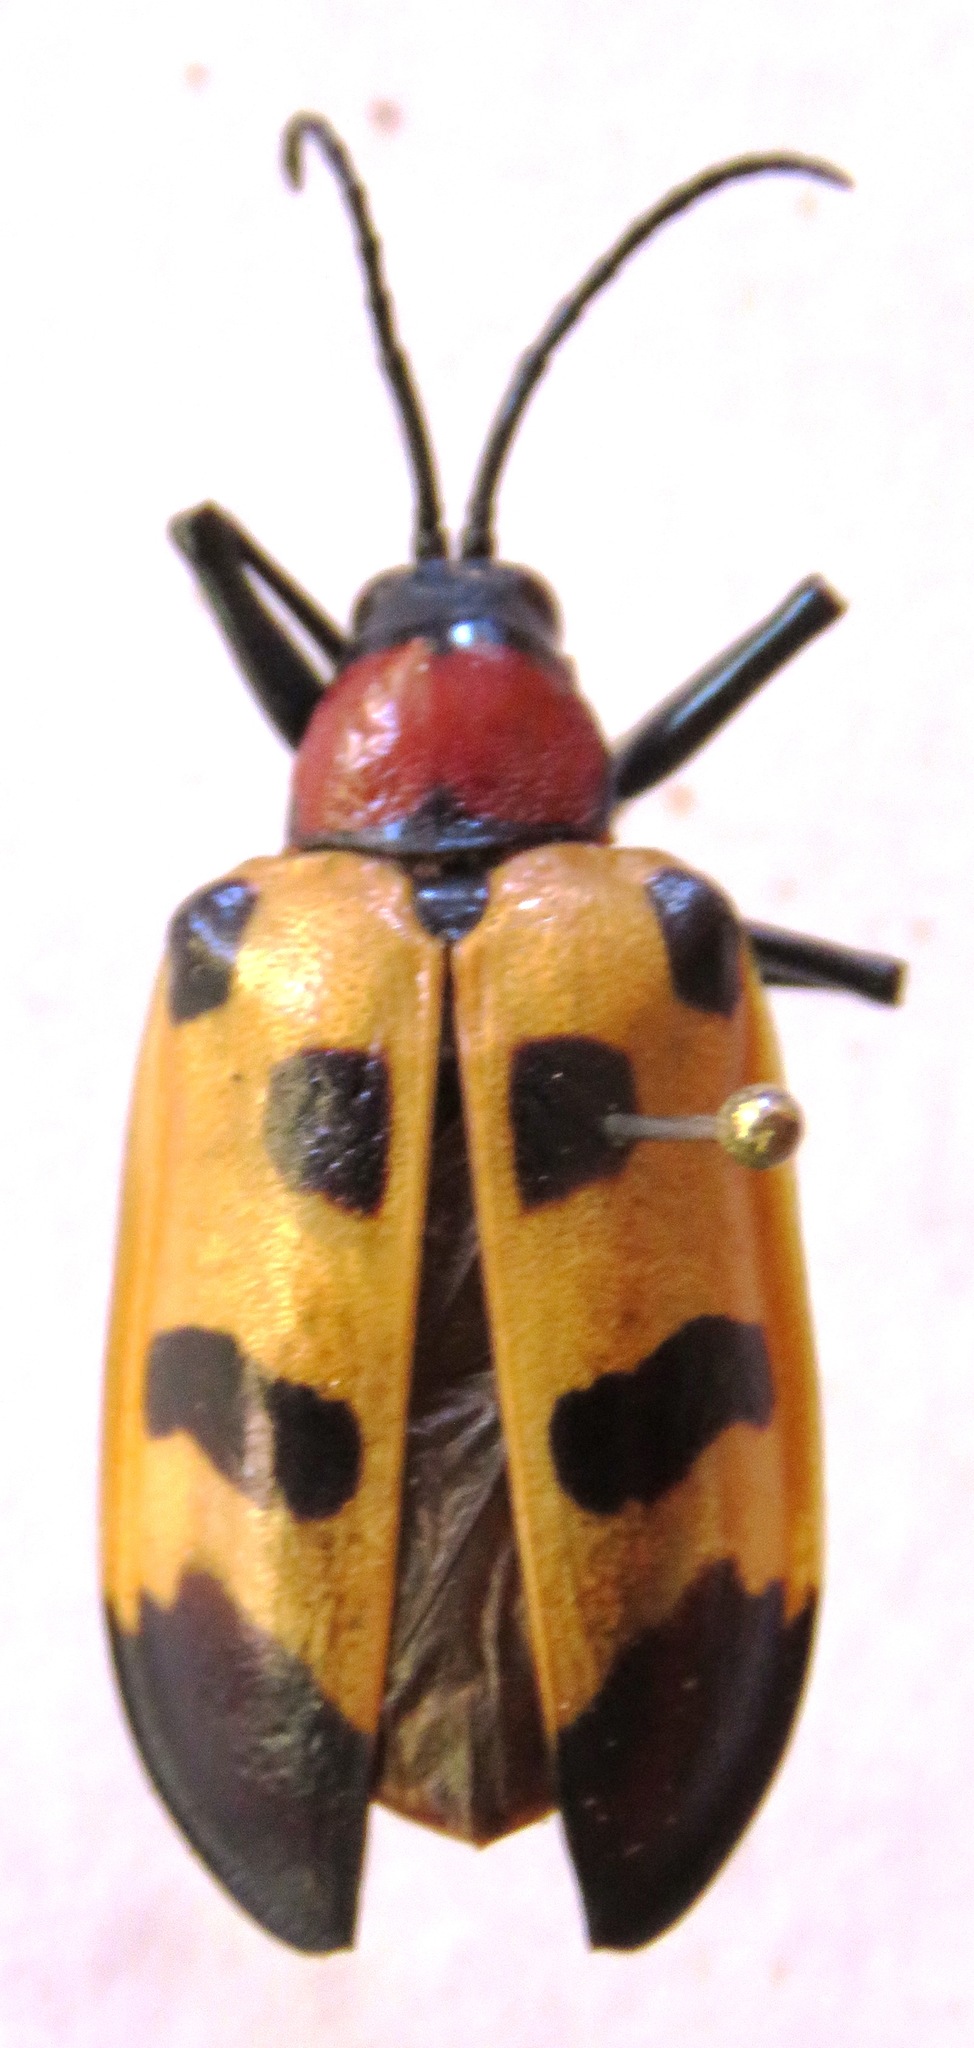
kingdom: Animalia
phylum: Arthropoda
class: Insecta
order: Coleoptera
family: Chrysomelidae
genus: Alurnus
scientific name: Alurnus ornatus
